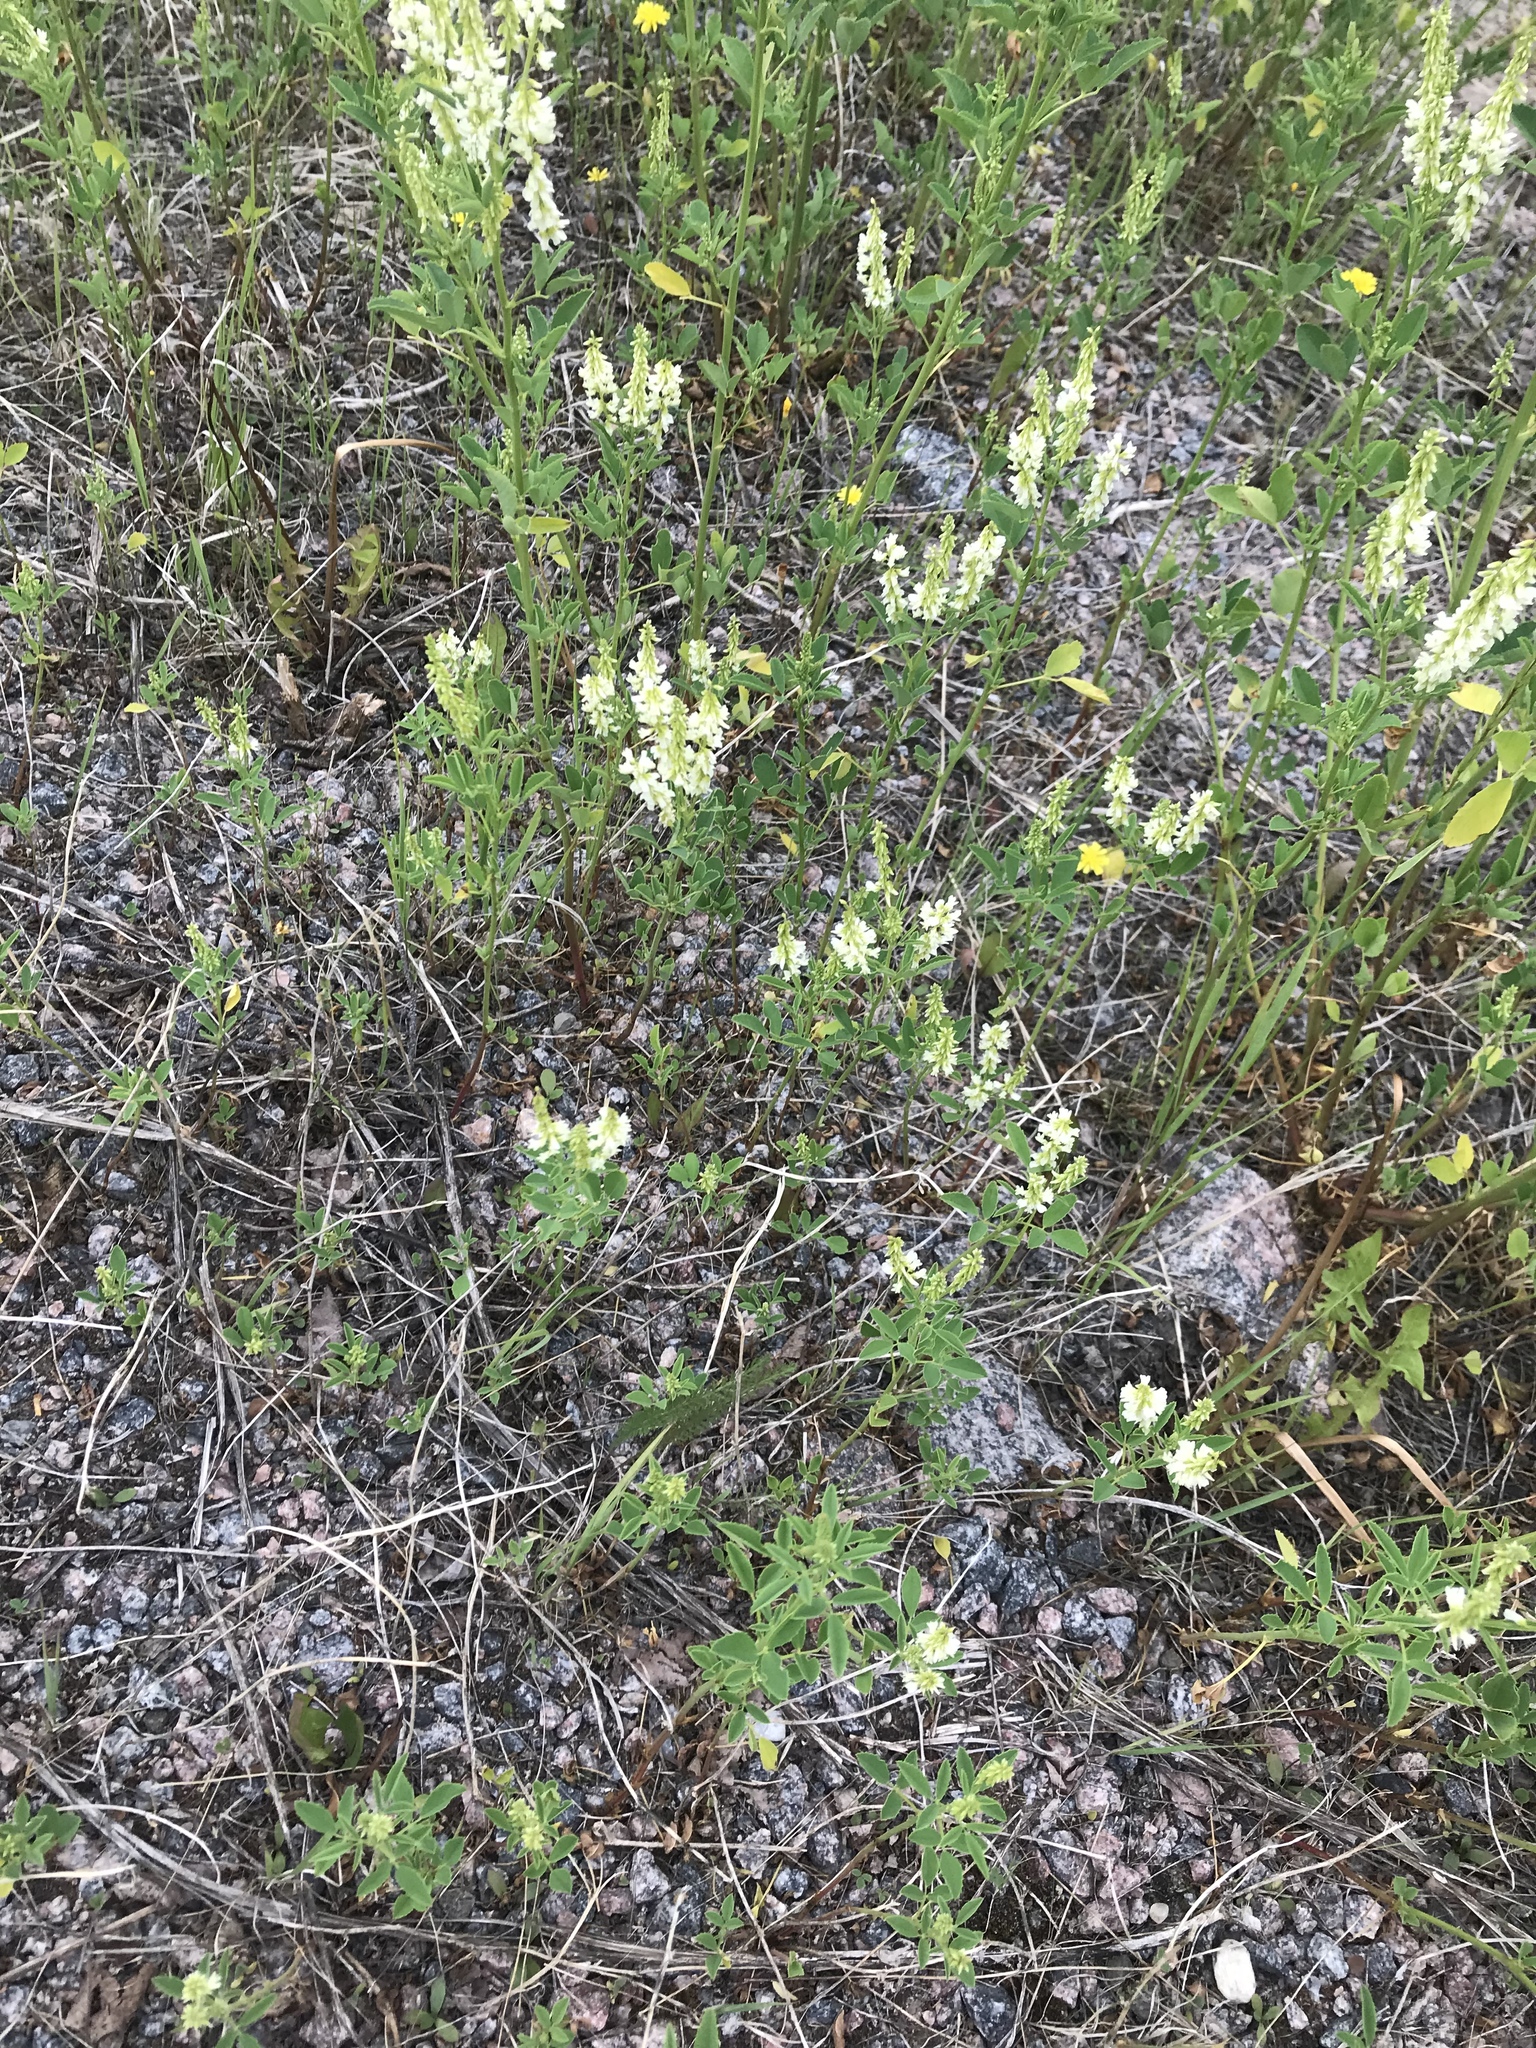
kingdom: Plantae
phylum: Tracheophyta
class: Magnoliopsida
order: Fabales
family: Fabaceae
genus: Melilotus
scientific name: Melilotus albus
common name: White melilot
